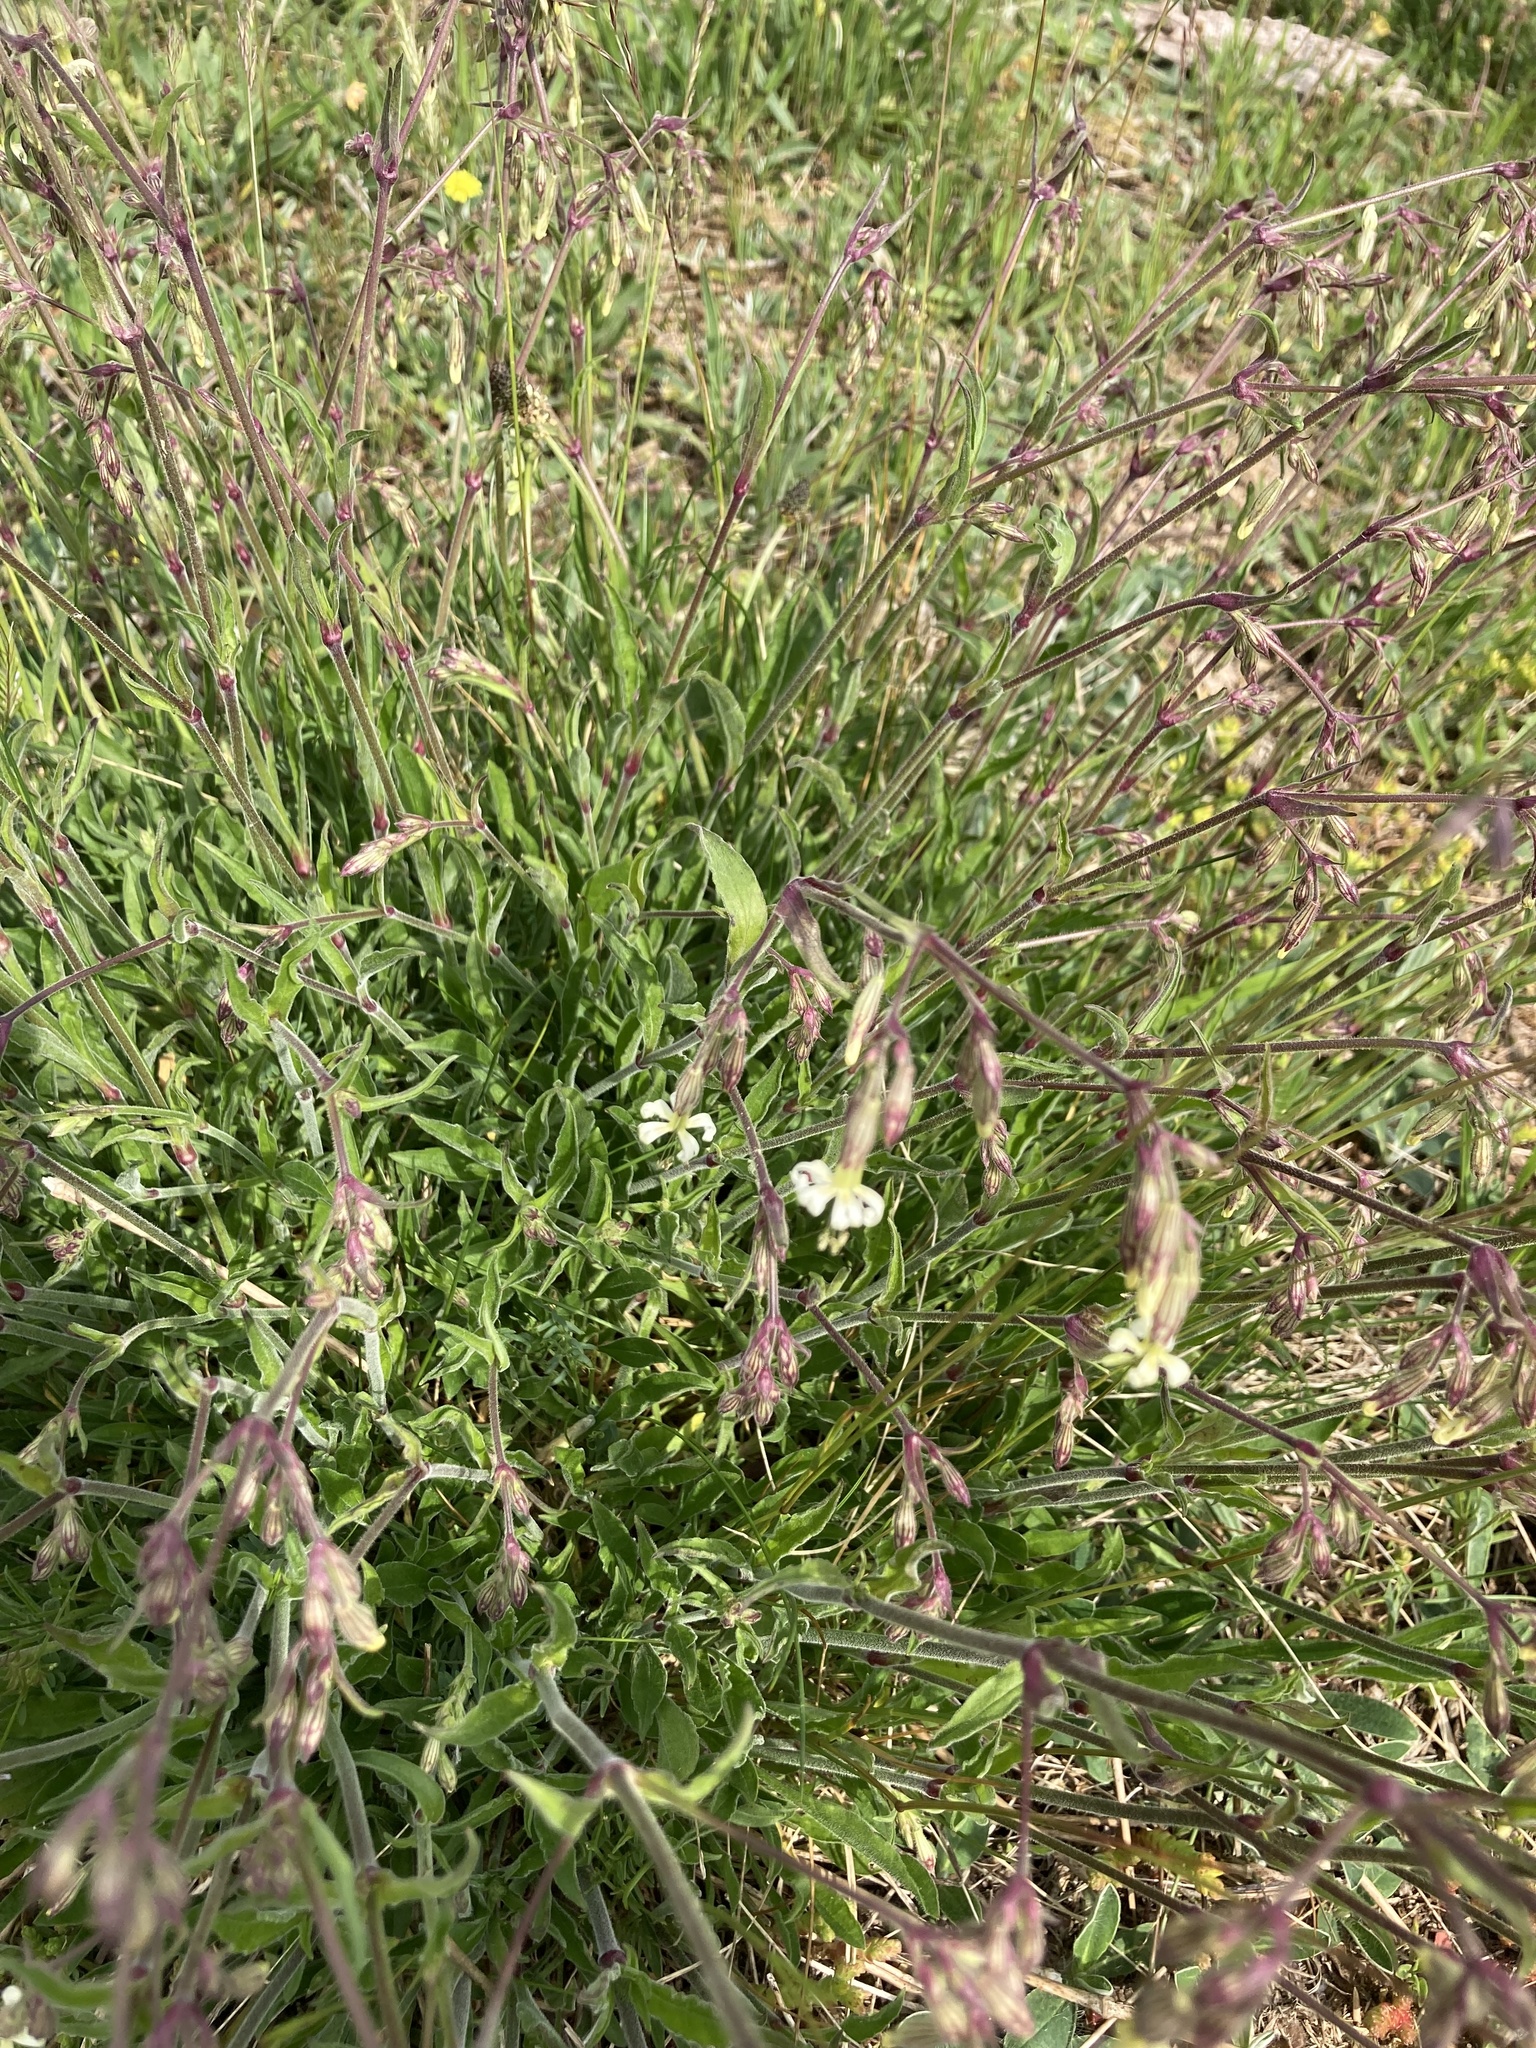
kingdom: Plantae
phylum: Tracheophyta
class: Magnoliopsida
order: Caryophyllales
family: Caryophyllaceae
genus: Silene
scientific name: Silene nutans
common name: Nottingham catchfly
